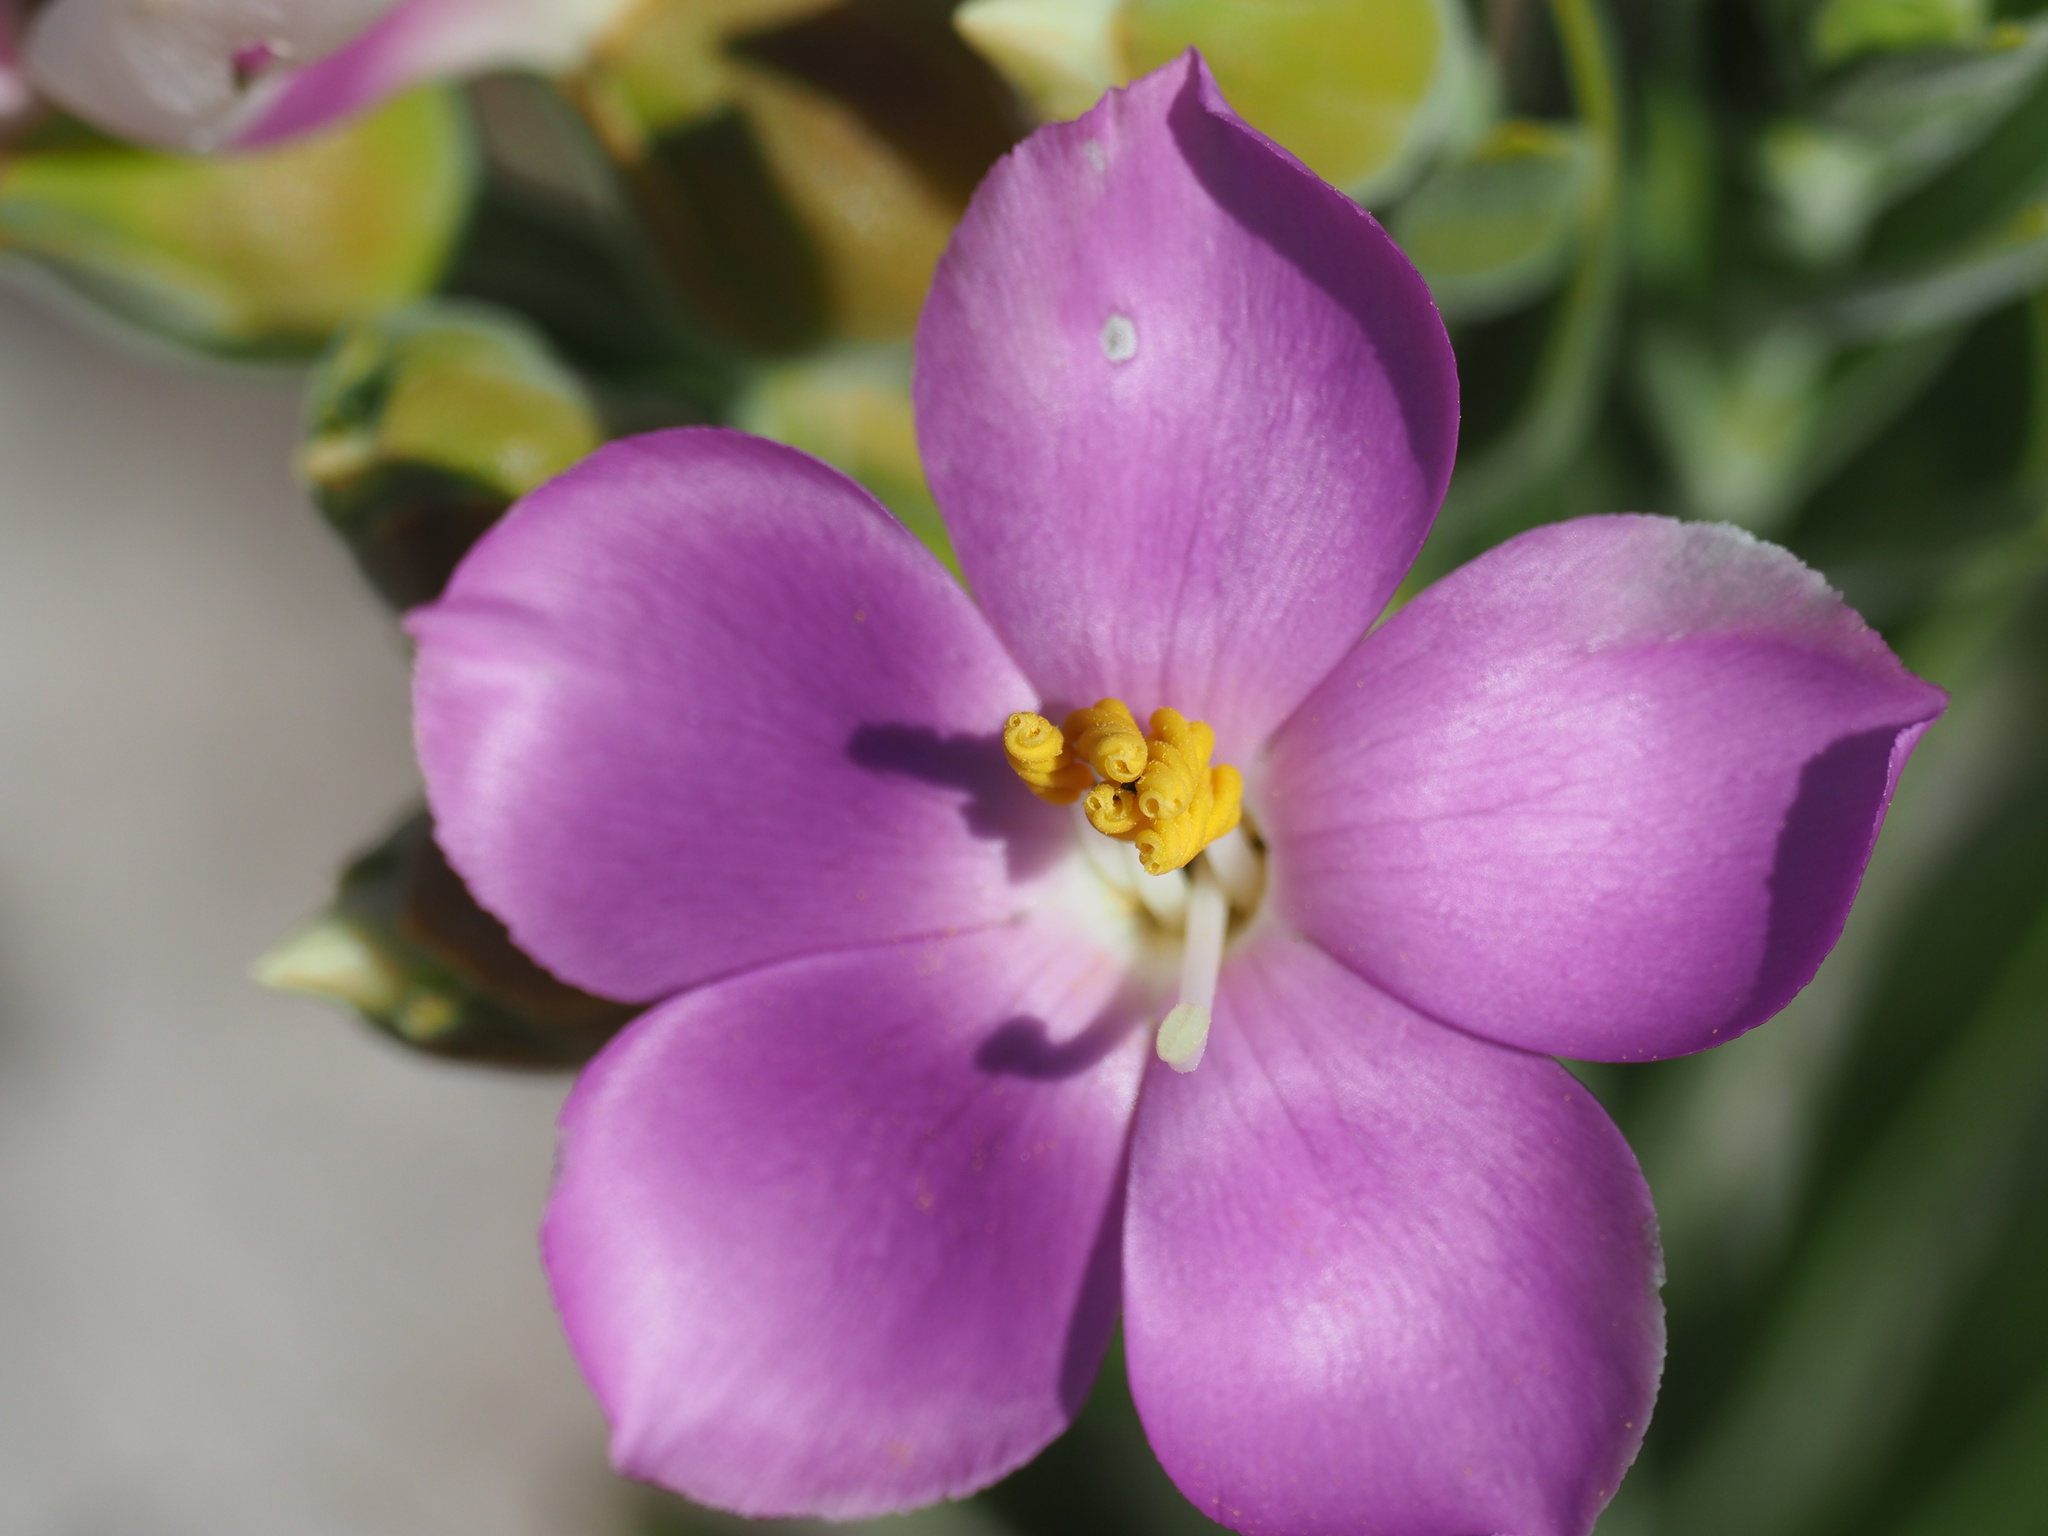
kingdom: Plantae
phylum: Tracheophyta
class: Magnoliopsida
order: Gentianales
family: Gentianaceae
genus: Orphium
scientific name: Orphium frutescens
